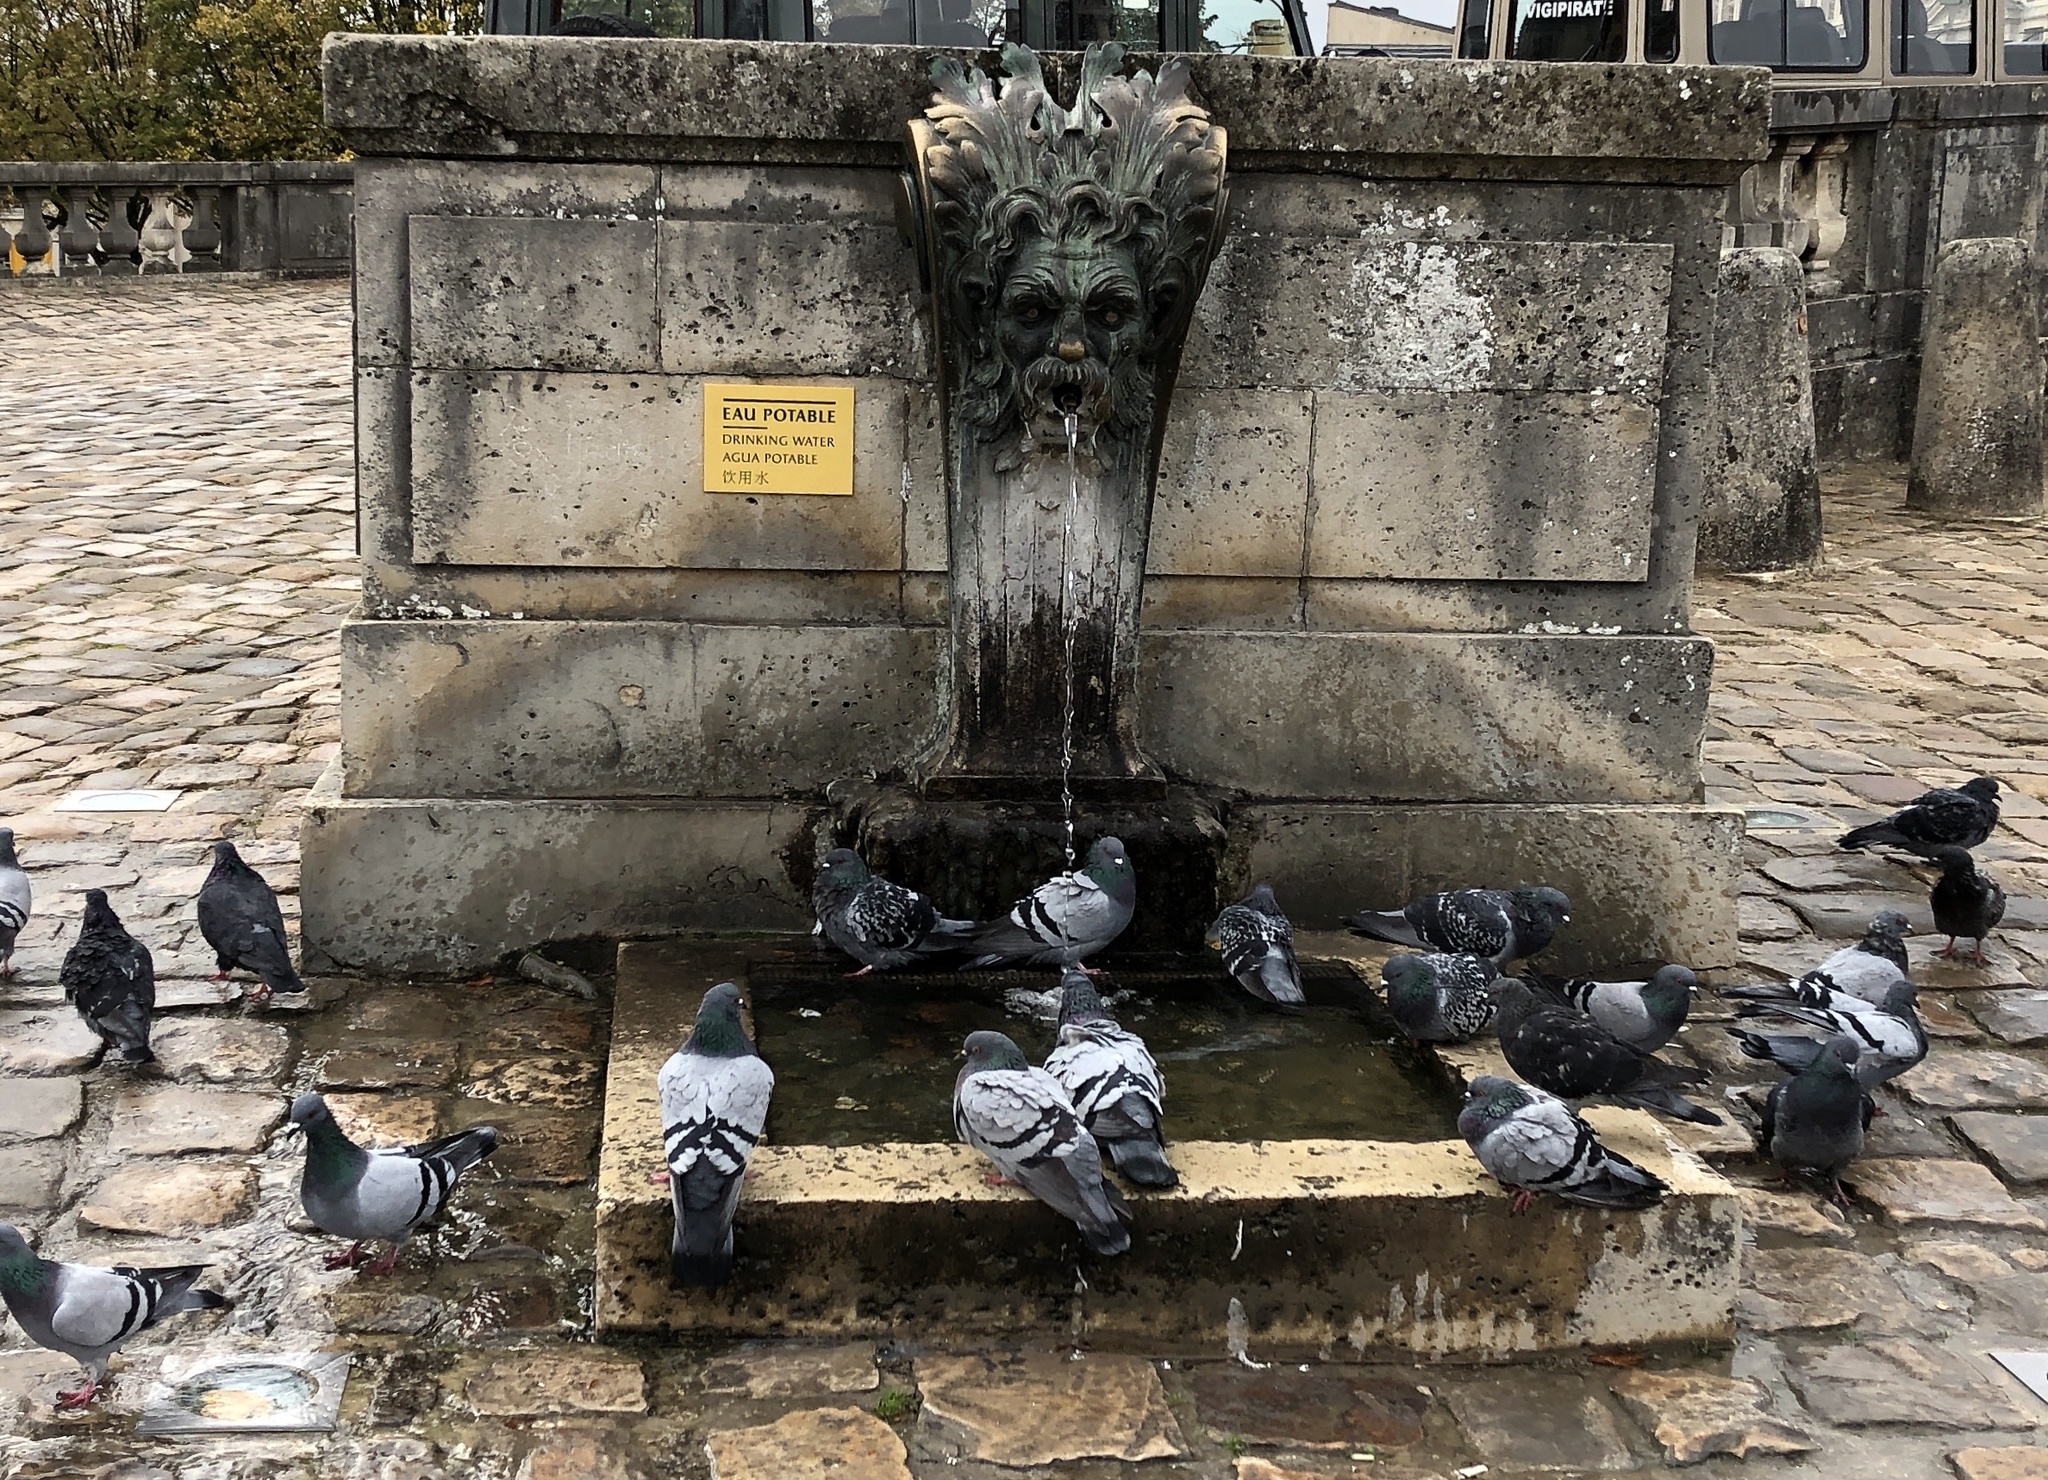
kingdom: Animalia
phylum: Chordata
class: Aves
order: Columbiformes
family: Columbidae
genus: Columba
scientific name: Columba livia
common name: Rock pigeon
